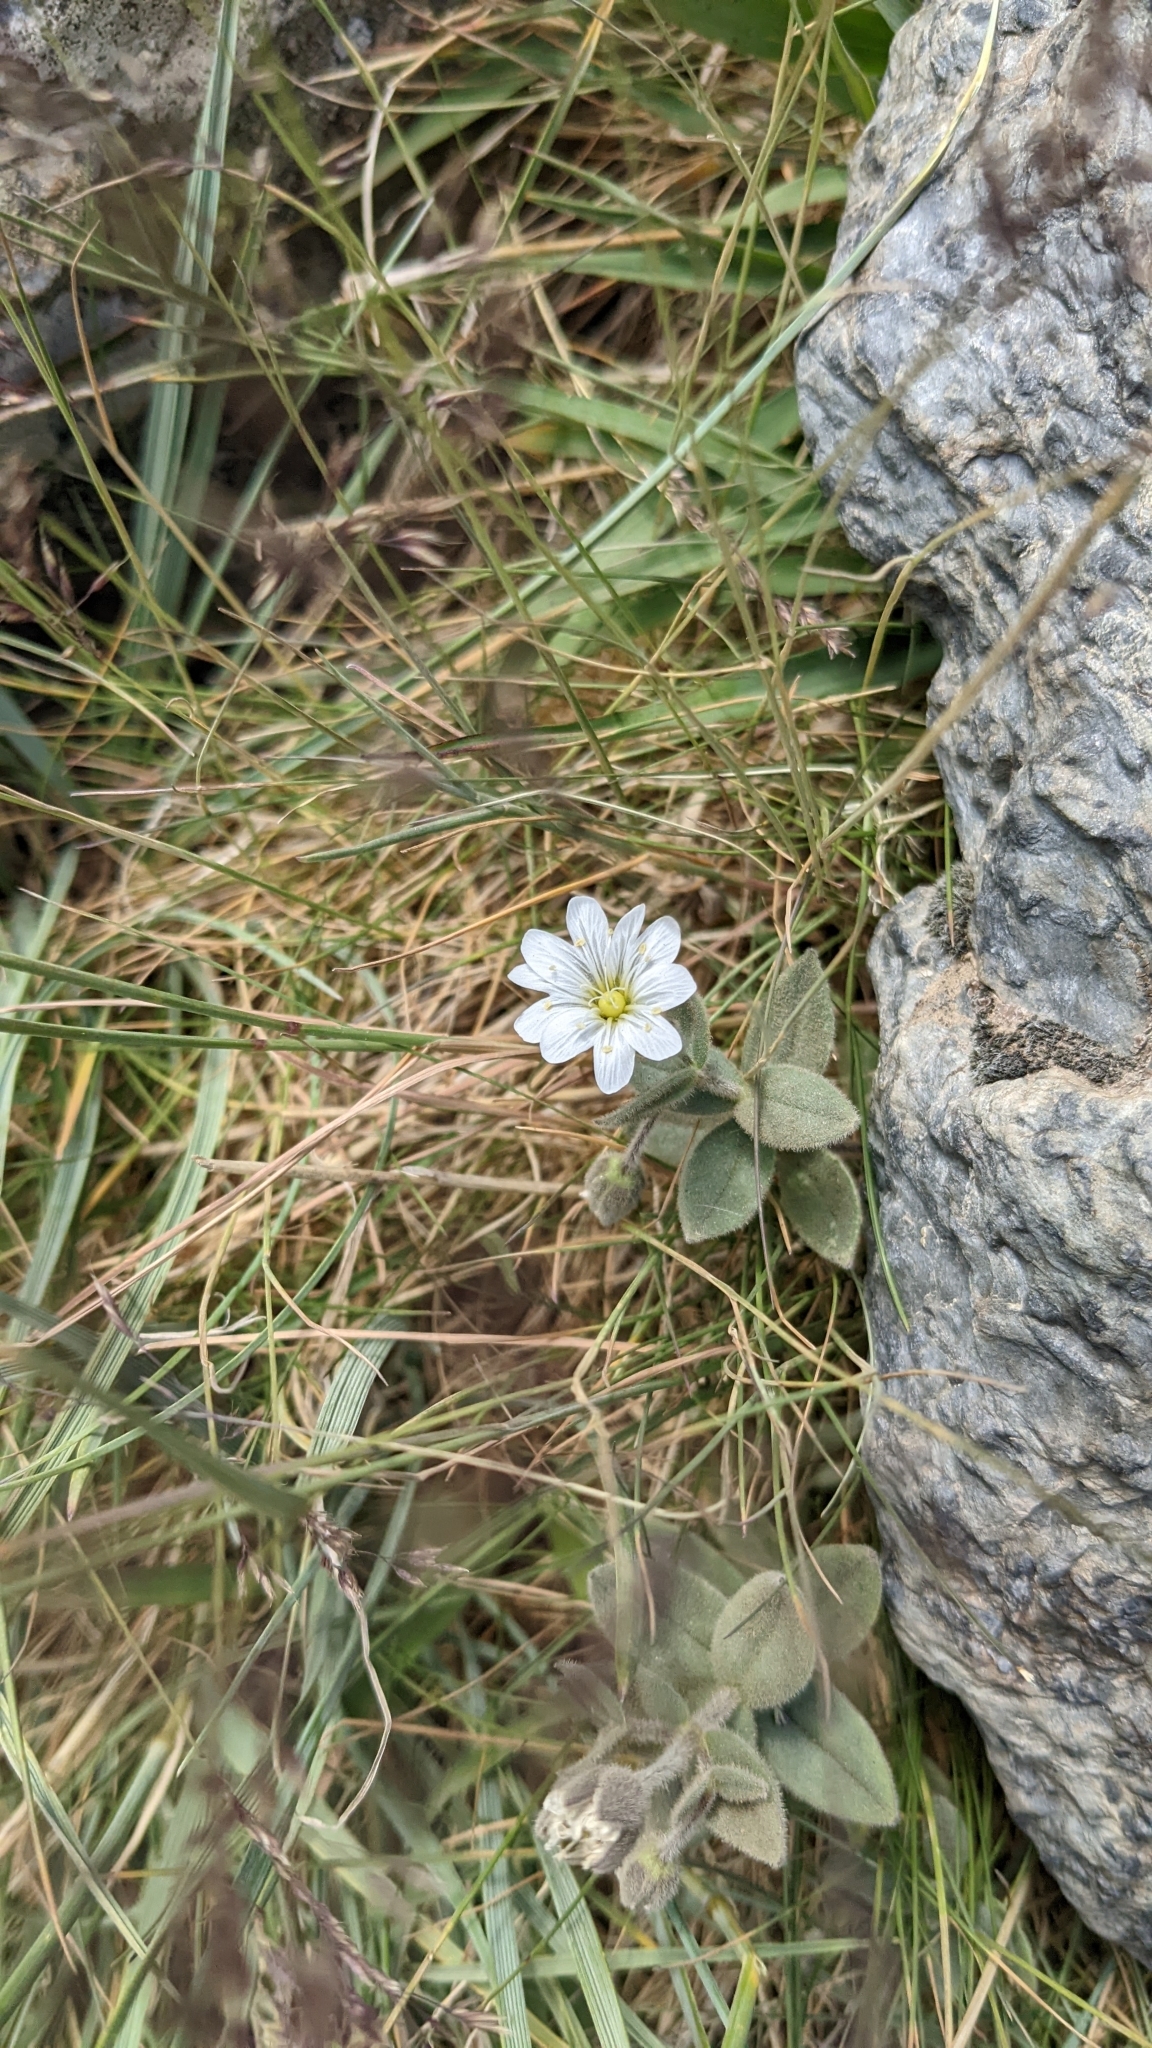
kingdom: Plantae
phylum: Tracheophyta
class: Magnoliopsida
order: Caryophyllales
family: Caryophyllaceae
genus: Cerastium
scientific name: Cerastium pyrenaicum
